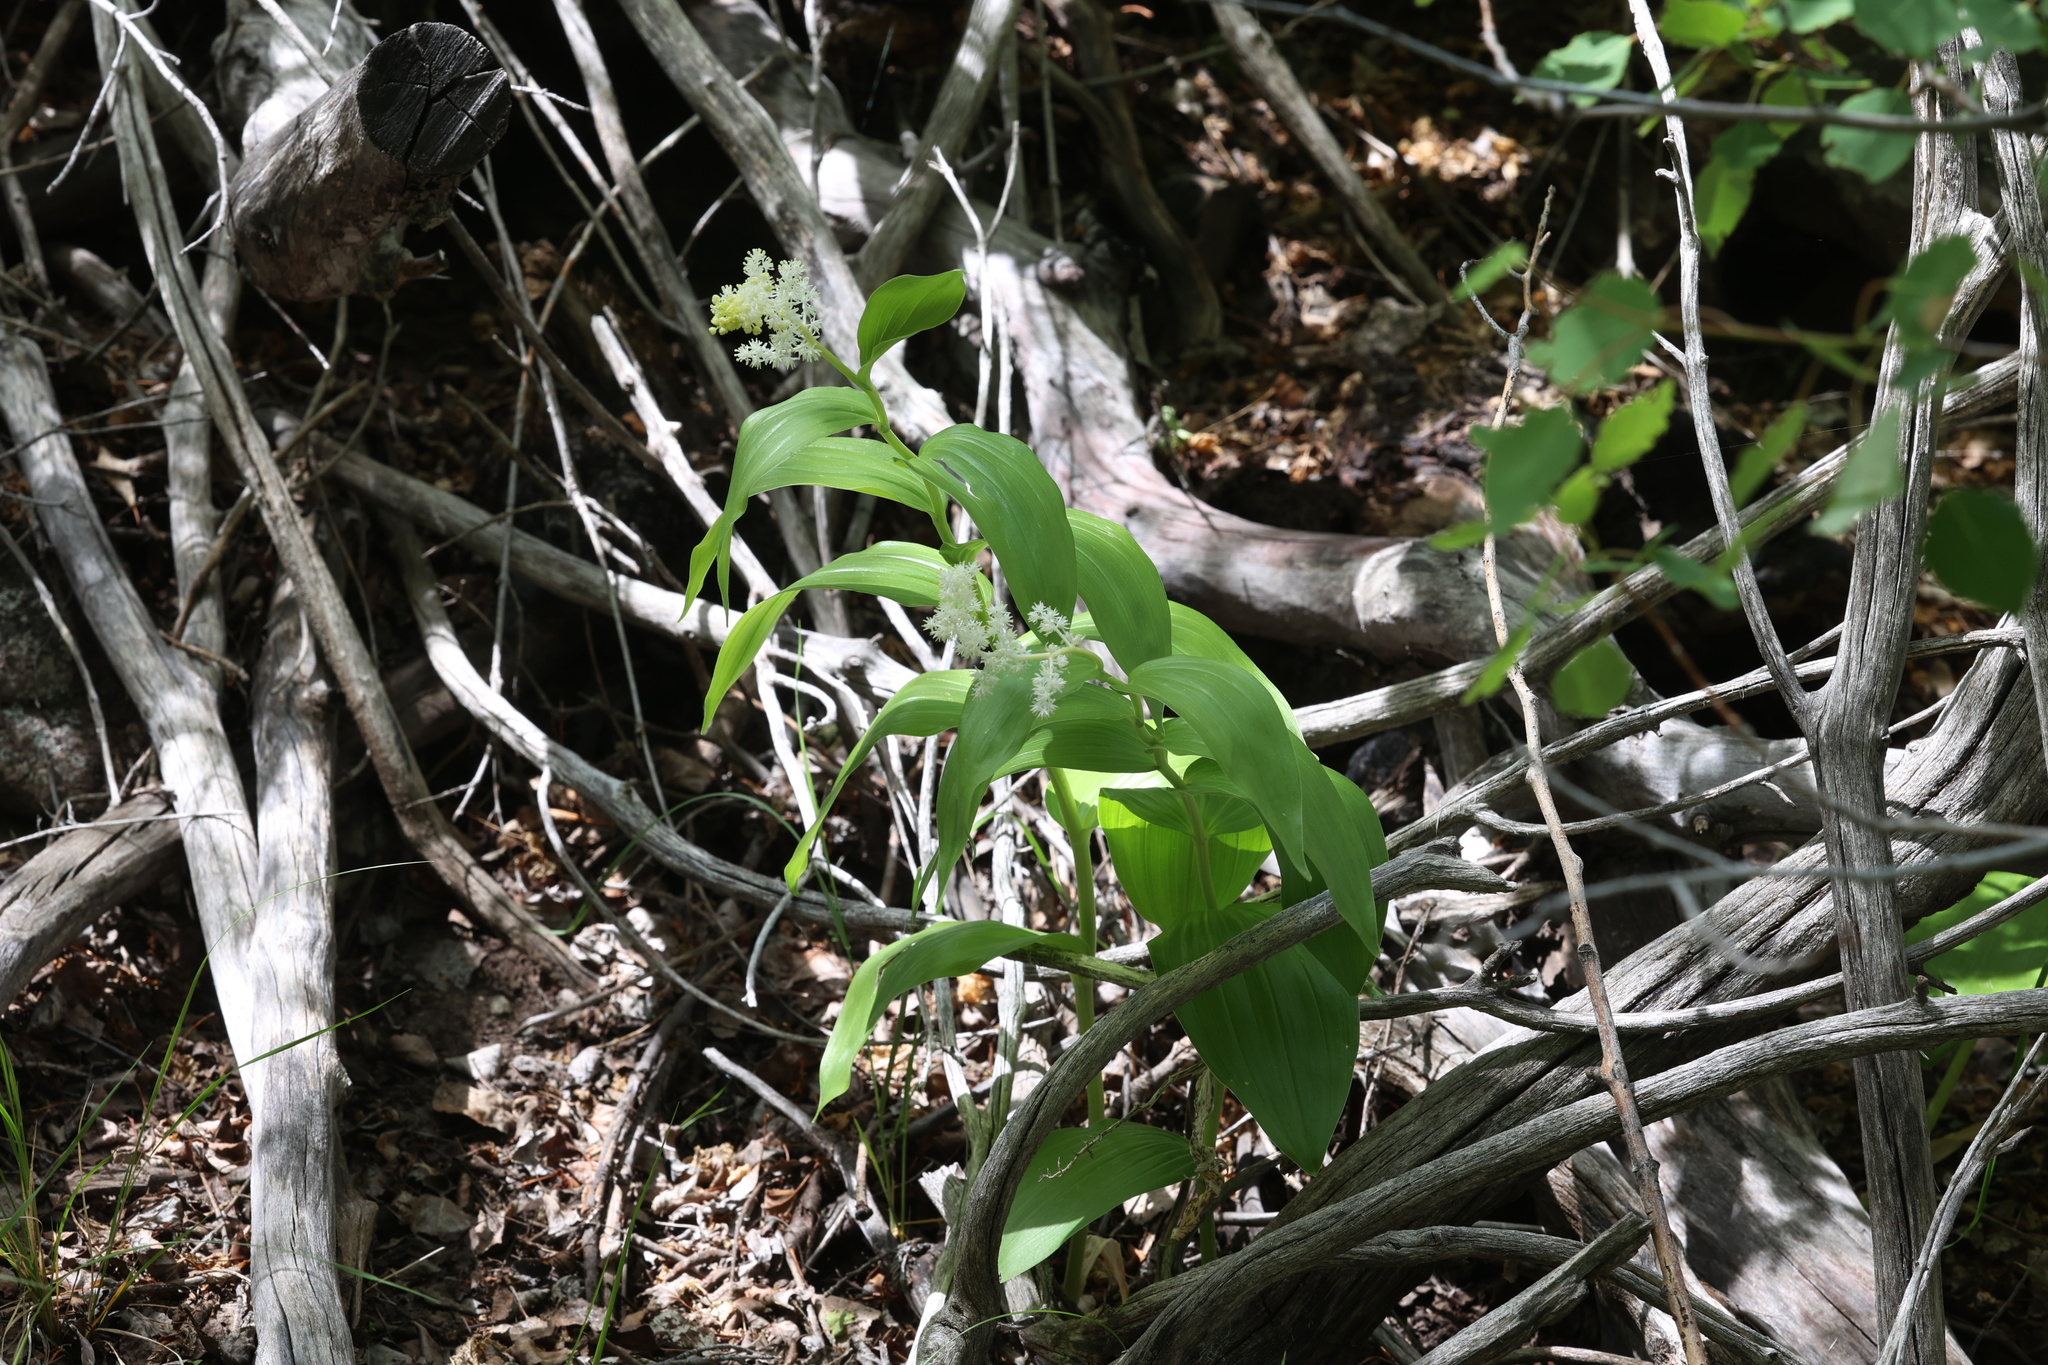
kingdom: Plantae
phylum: Tracheophyta
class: Liliopsida
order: Asparagales
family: Asparagaceae
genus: Maianthemum
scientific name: Maianthemum racemosum
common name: False spikenard
